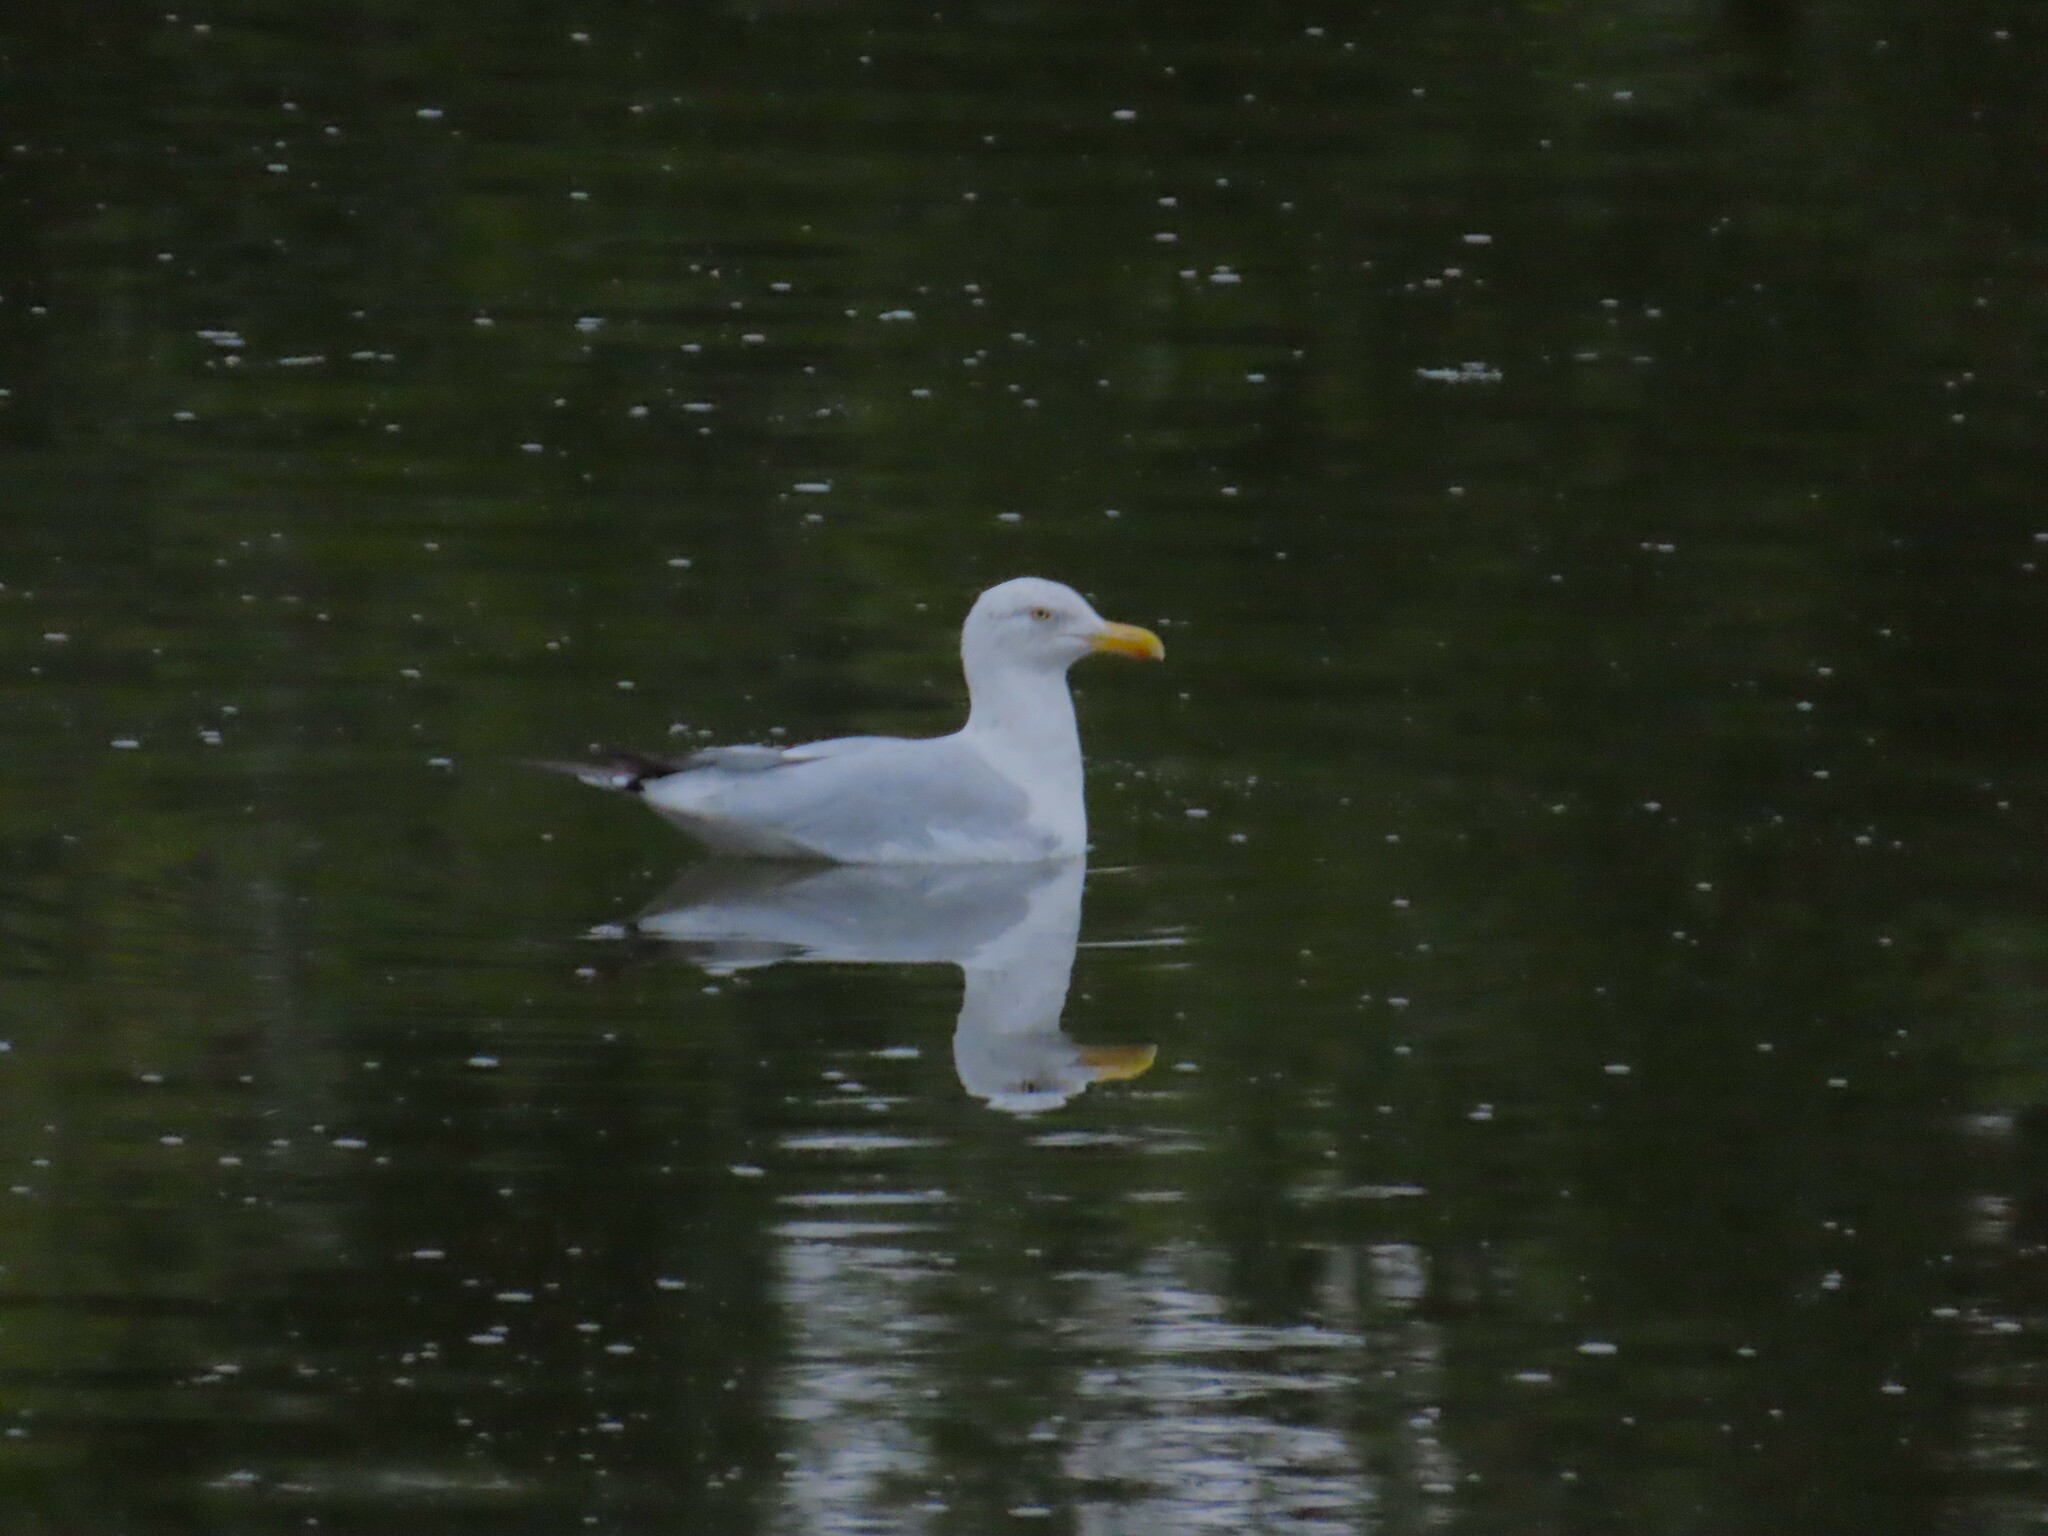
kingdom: Animalia
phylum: Chordata
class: Aves
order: Charadriiformes
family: Laridae
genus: Larus
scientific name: Larus argentatus
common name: Herring gull
